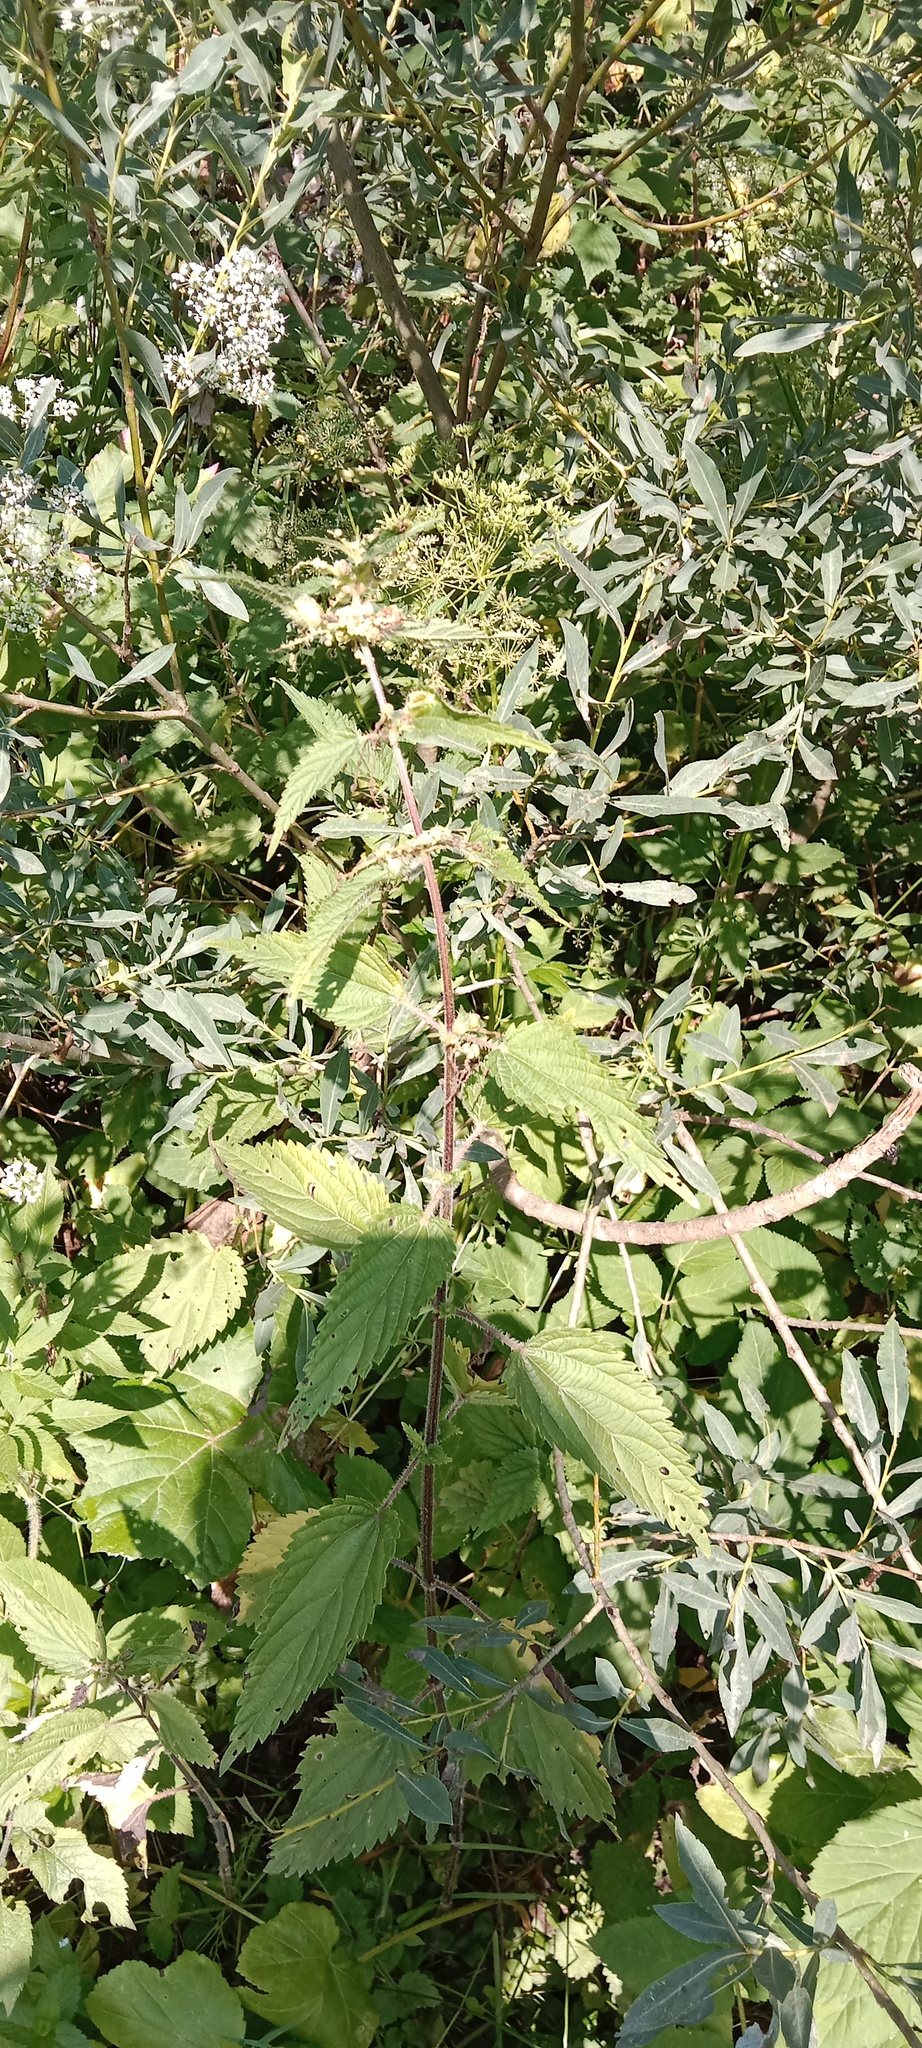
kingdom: Plantae
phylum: Tracheophyta
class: Magnoliopsida
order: Rosales
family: Urticaceae
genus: Urtica
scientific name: Urtica dioica
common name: Common nettle
